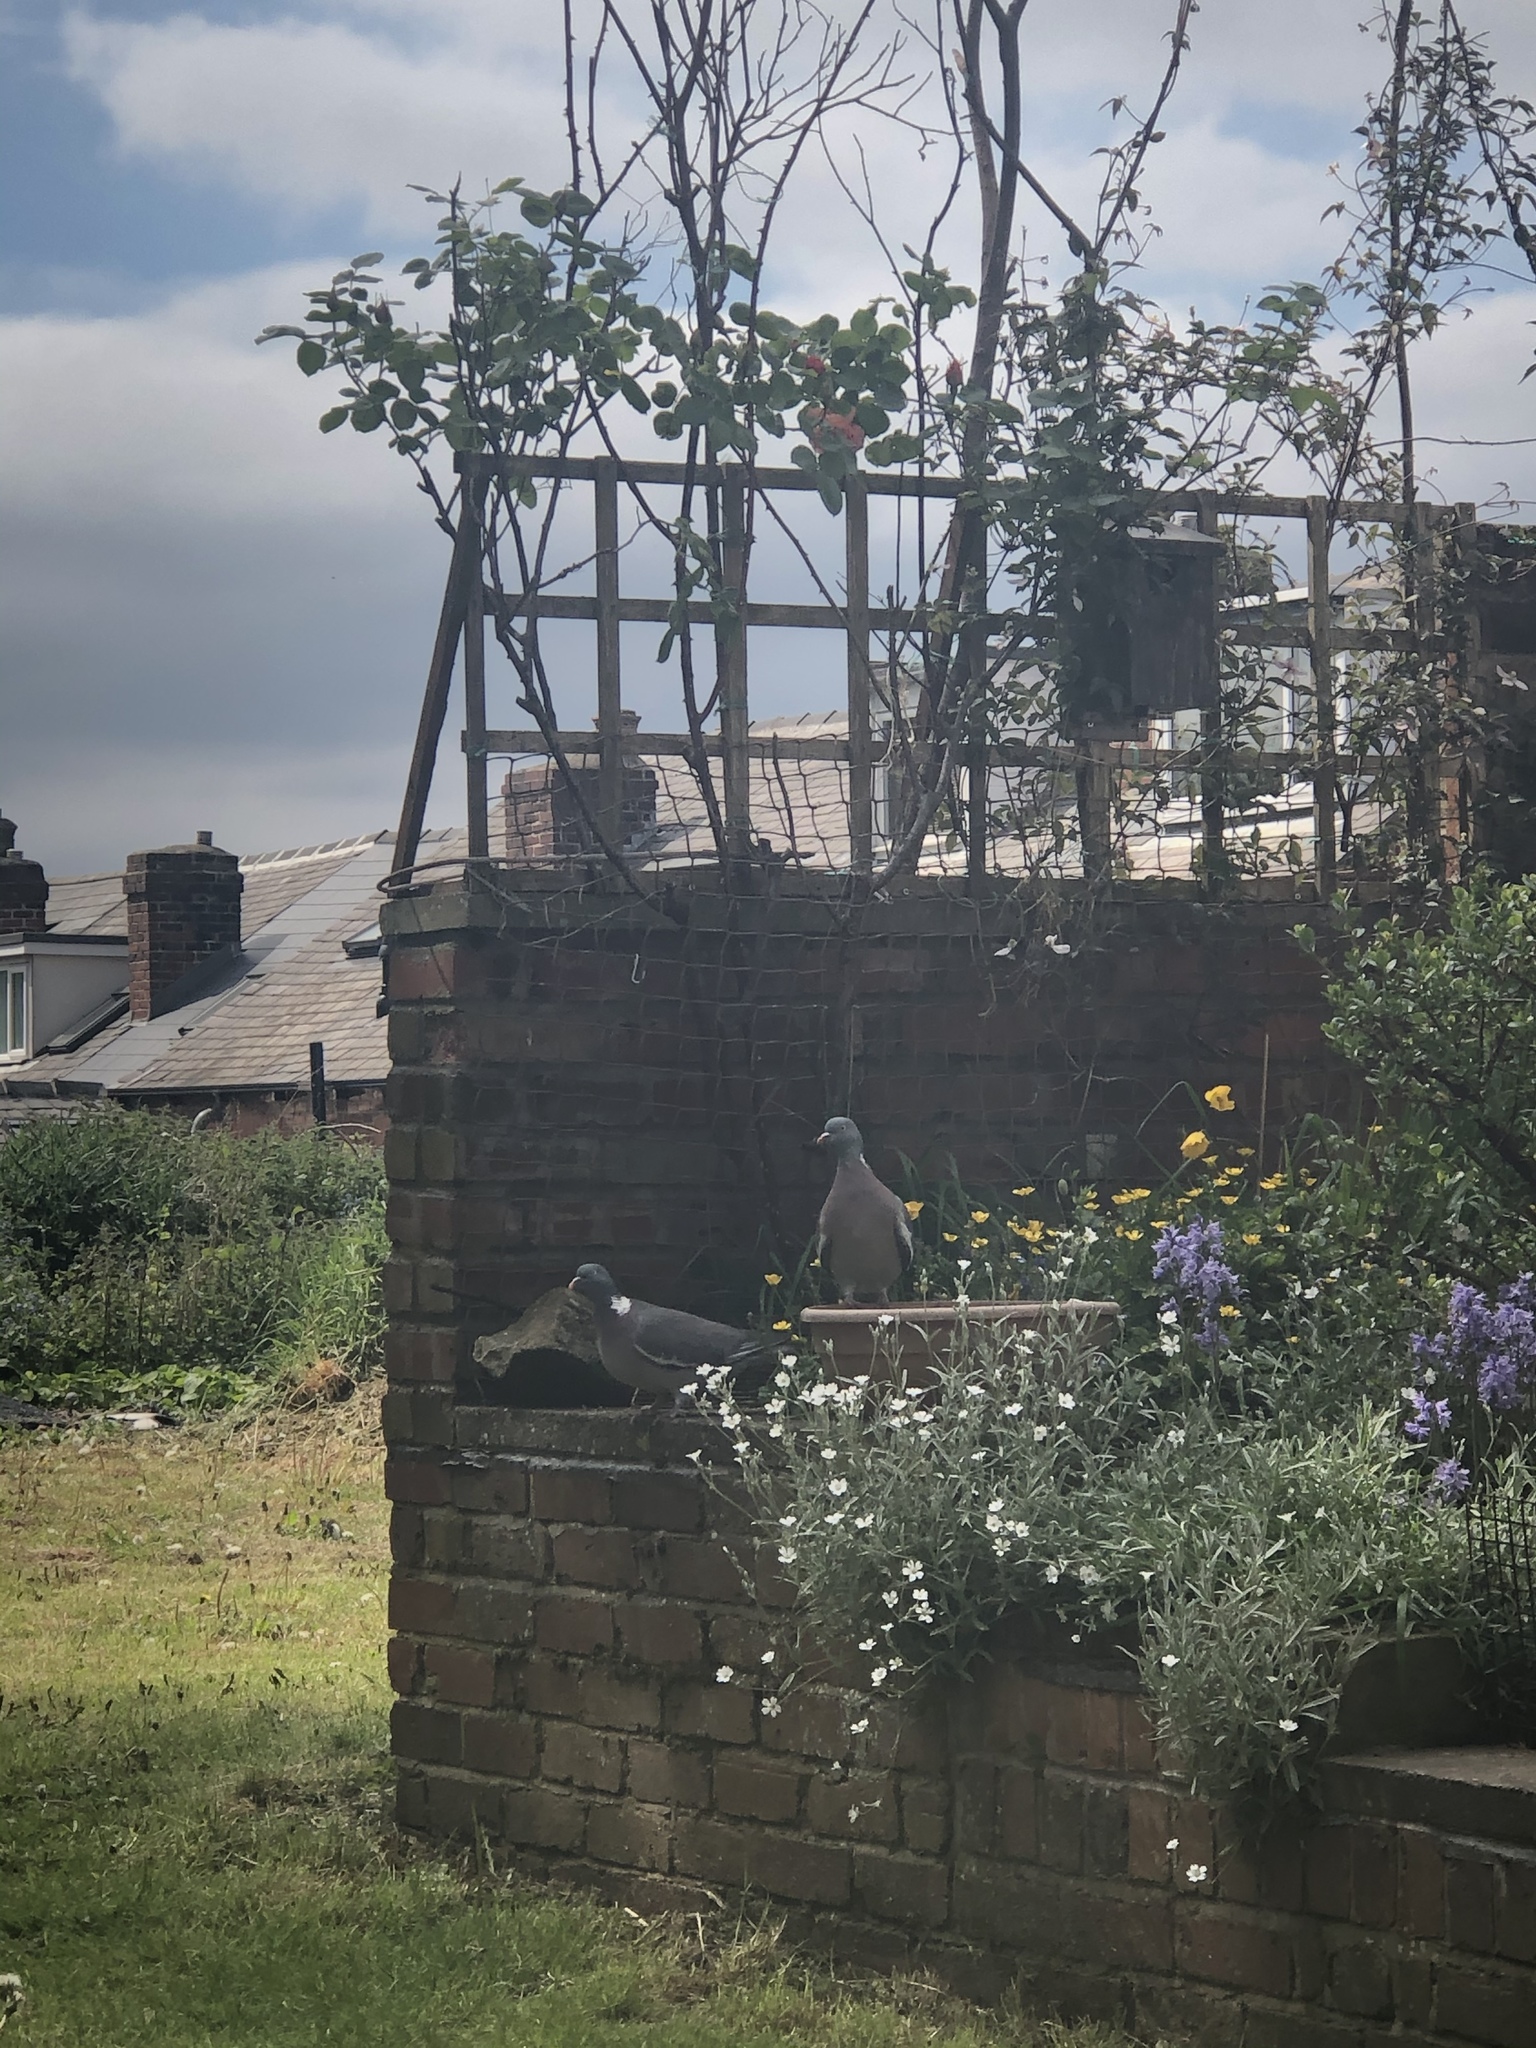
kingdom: Animalia
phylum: Chordata
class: Aves
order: Columbiformes
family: Columbidae
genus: Columba
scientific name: Columba palumbus
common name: Common wood pigeon
